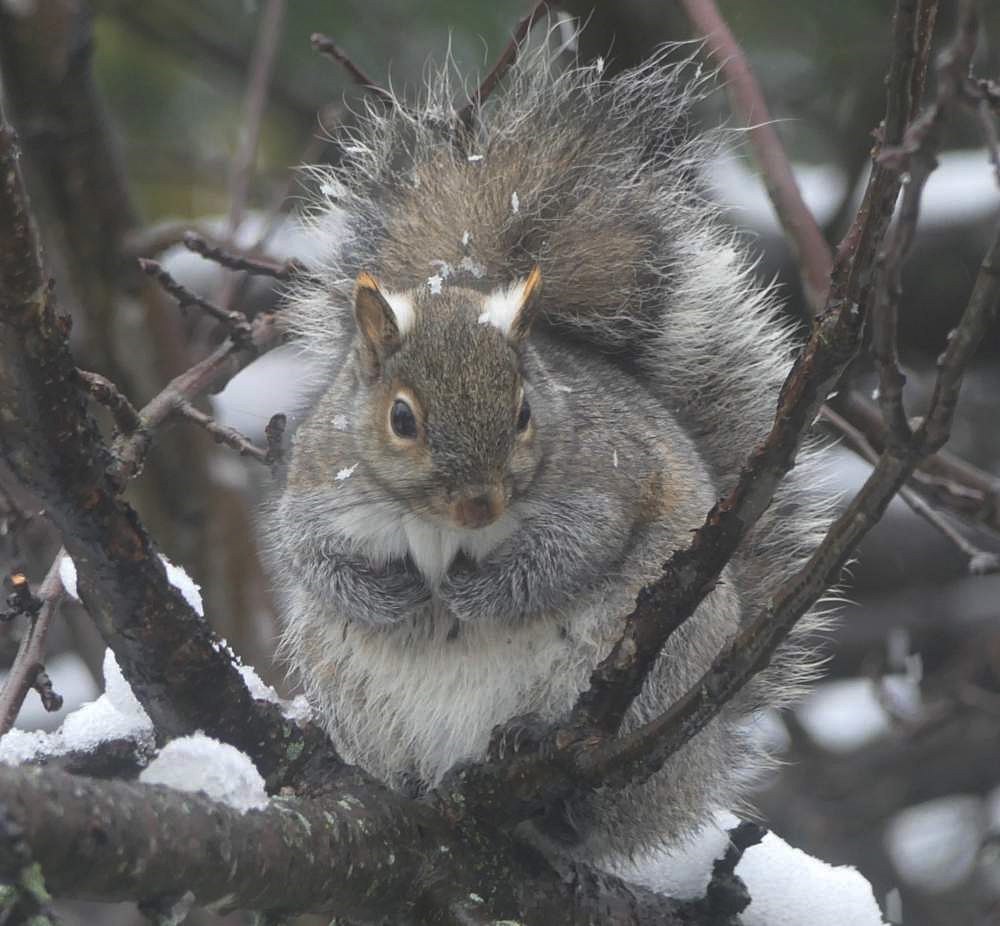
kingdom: Animalia
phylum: Chordata
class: Mammalia
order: Rodentia
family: Sciuridae
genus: Sciurus
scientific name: Sciurus carolinensis
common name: Eastern gray squirrel
